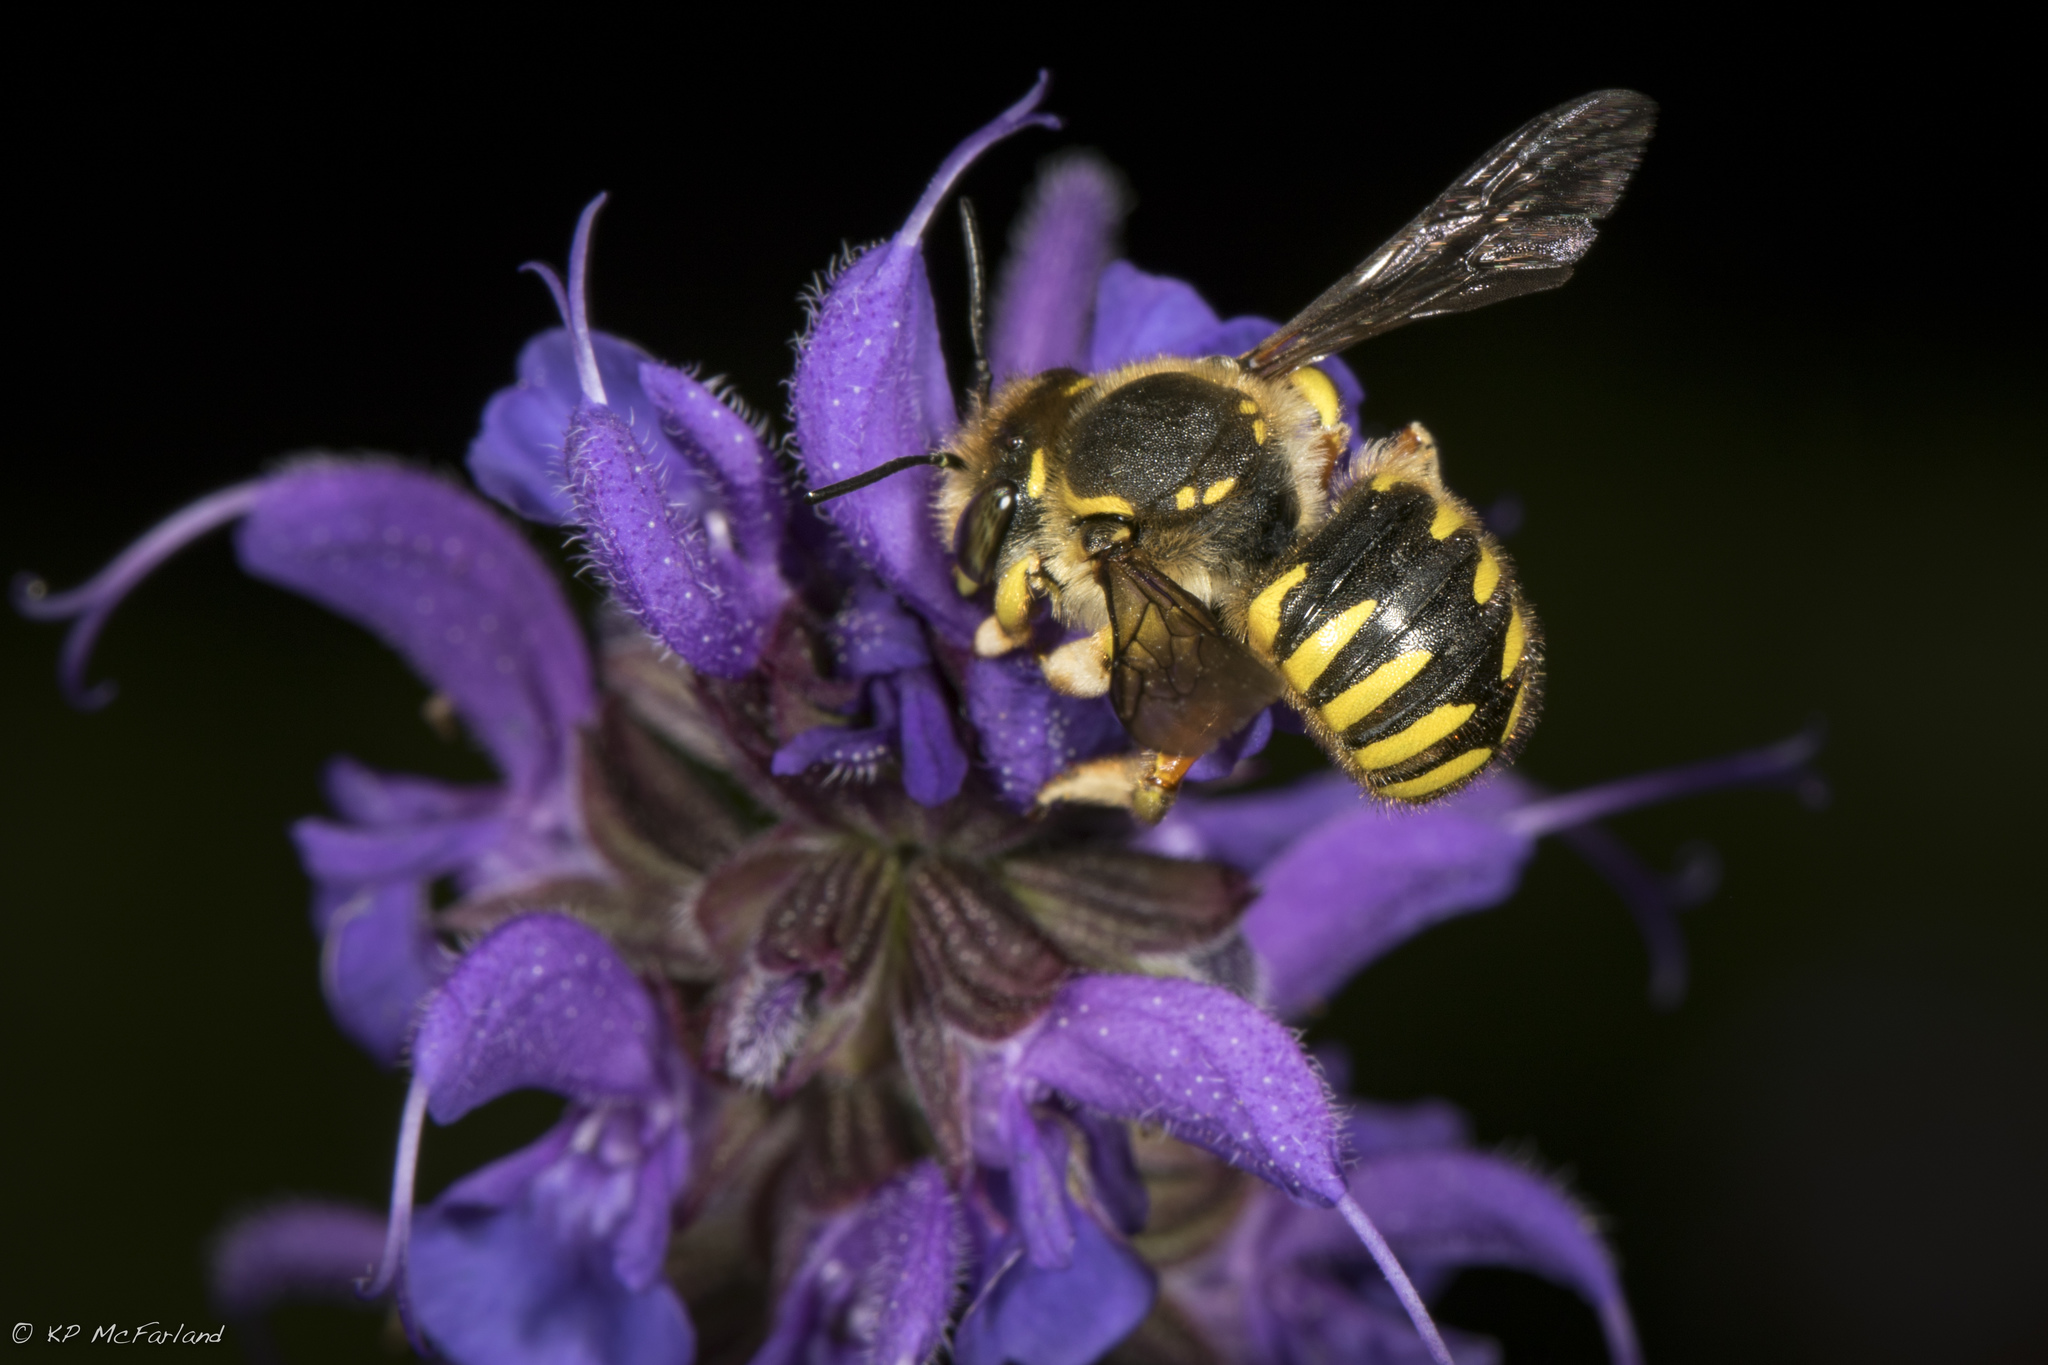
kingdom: Animalia
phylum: Arthropoda
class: Insecta
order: Hymenoptera
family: Megachilidae
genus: Anthidium
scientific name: Anthidium manicatum
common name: Wool carder bee
